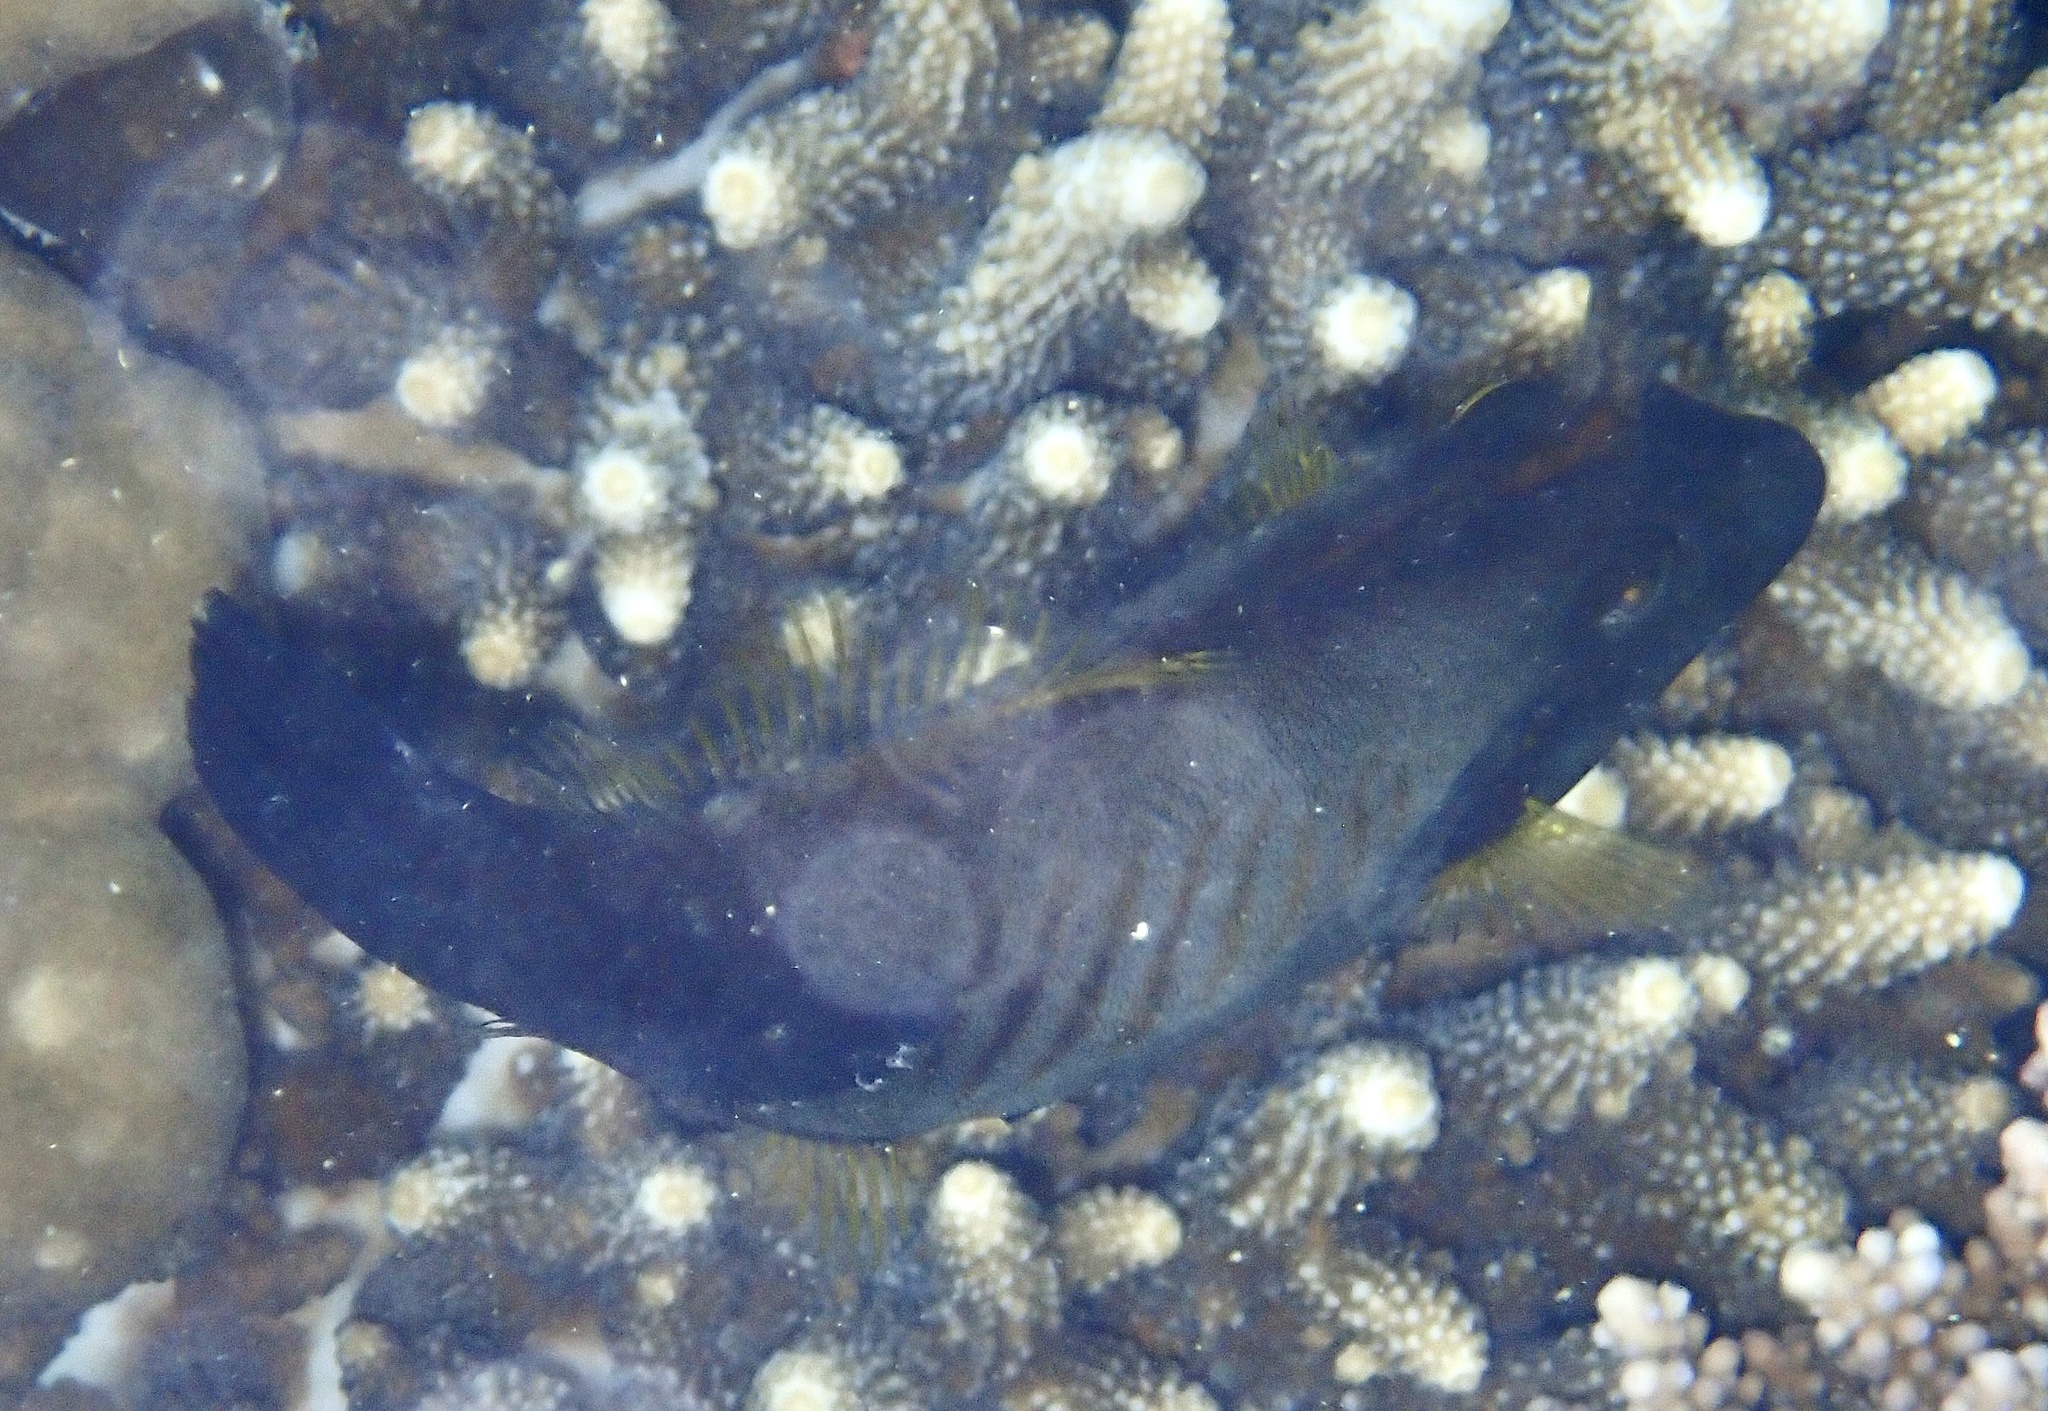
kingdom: Animalia
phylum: Chordata
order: Tetraodontiformes
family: Monacanthidae
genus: Amanses
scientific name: Amanses scopas
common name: Broom filefish
